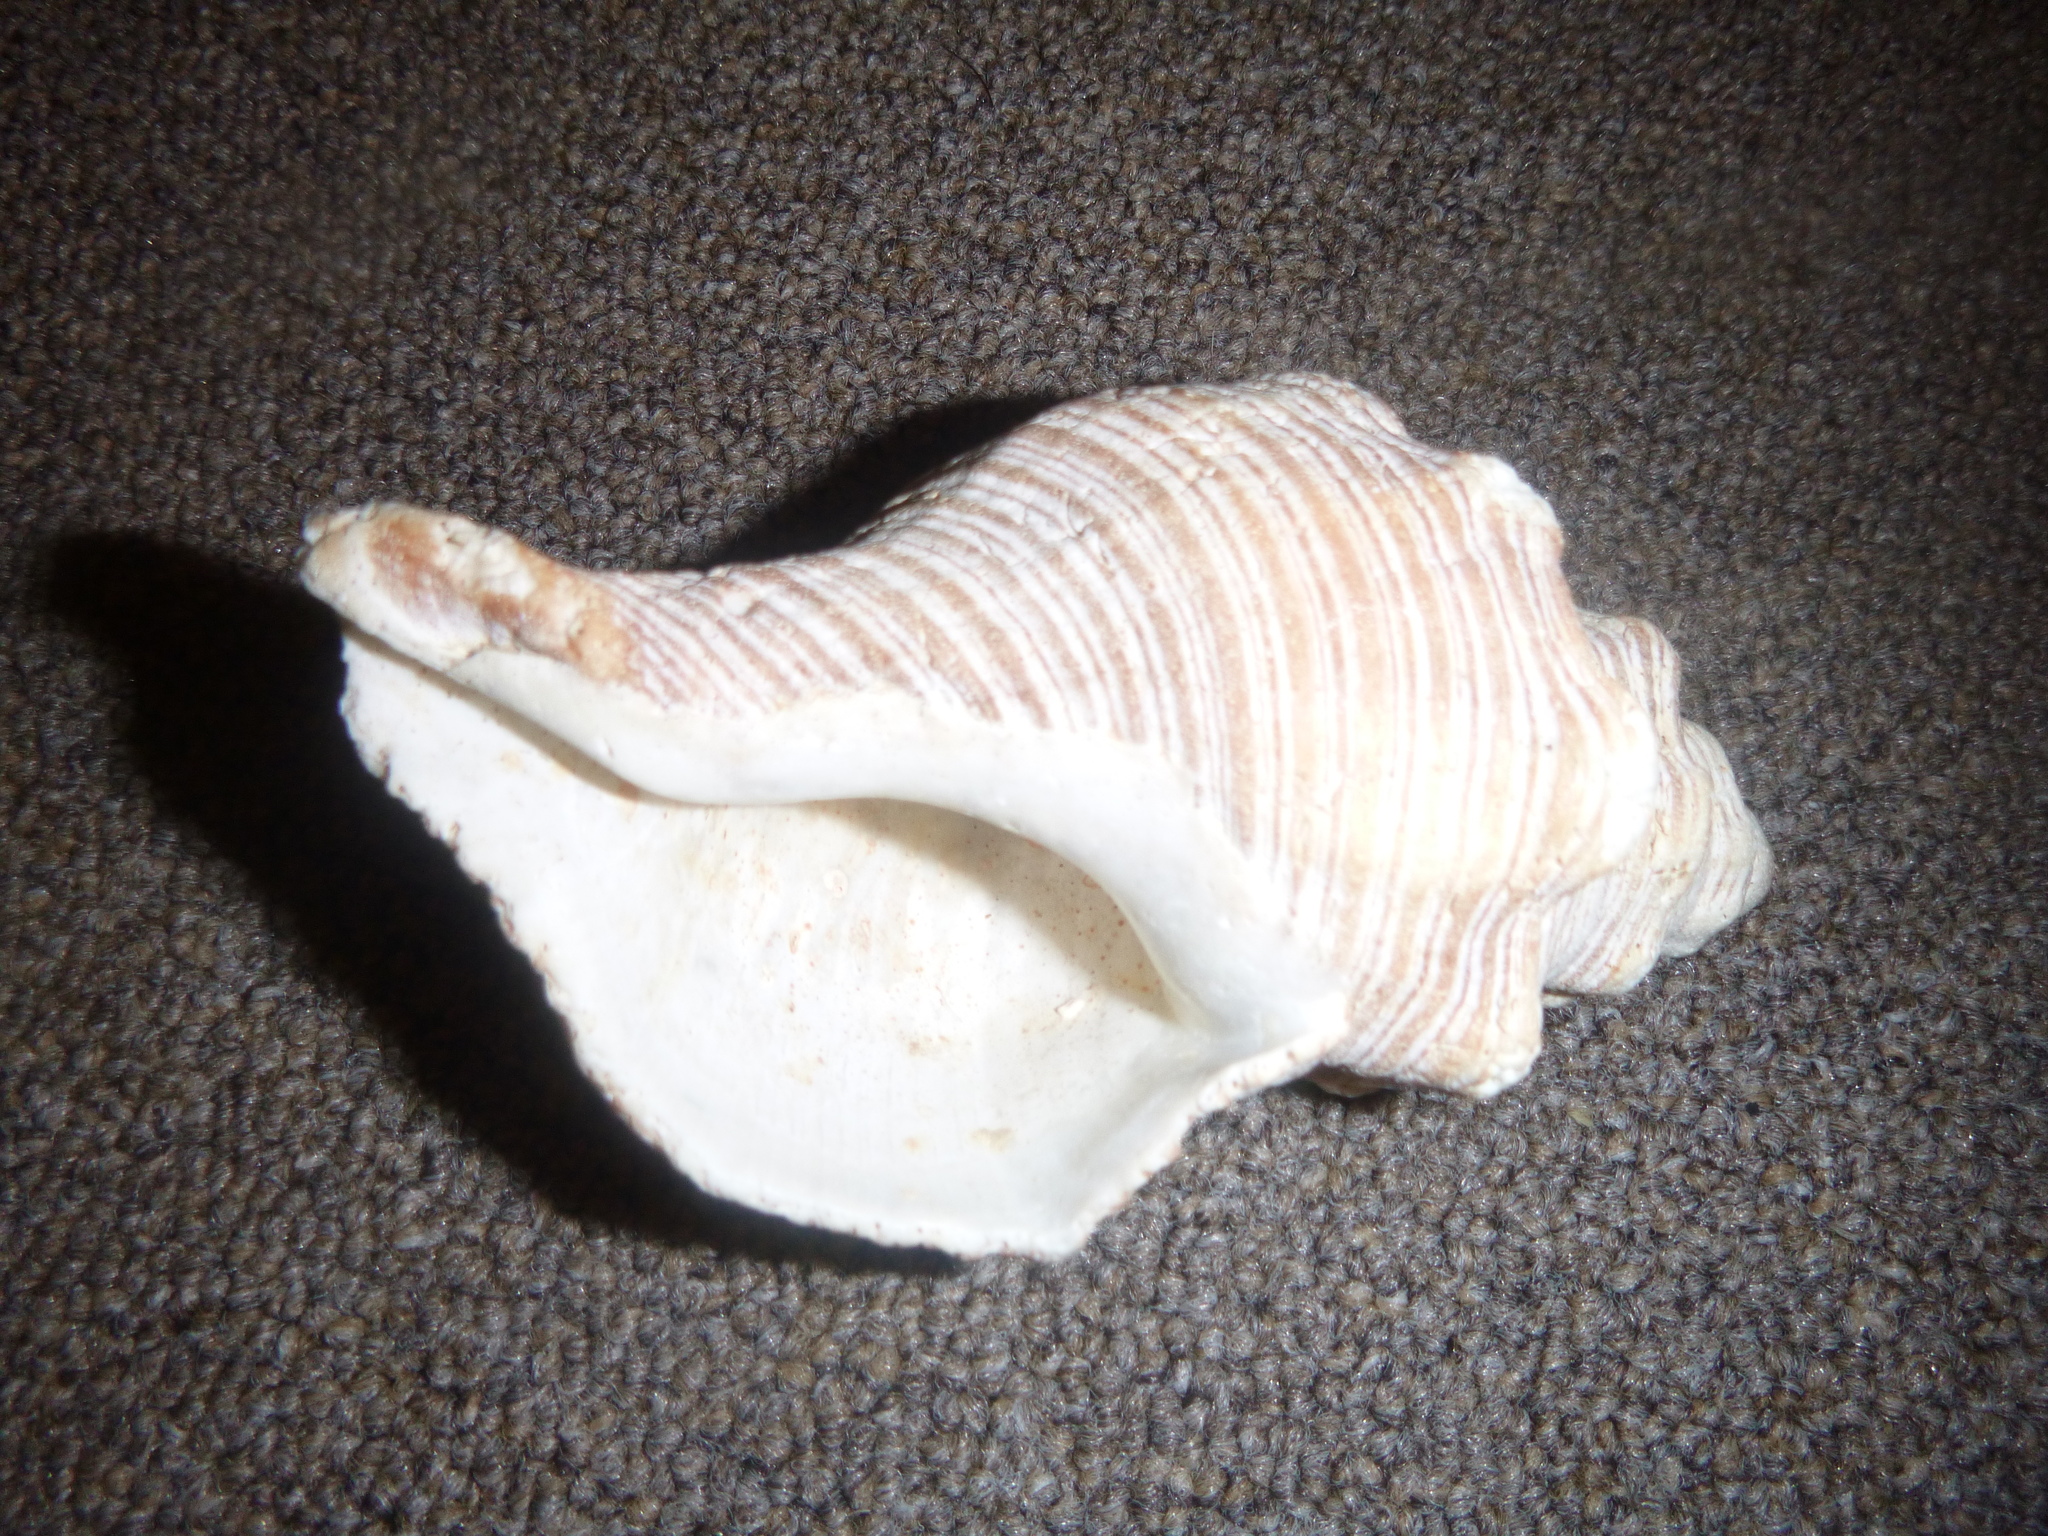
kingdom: Animalia
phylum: Mollusca
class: Gastropoda
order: Neogastropoda
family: Austrosiphonidae
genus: Penion
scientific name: Penion sulcatus
